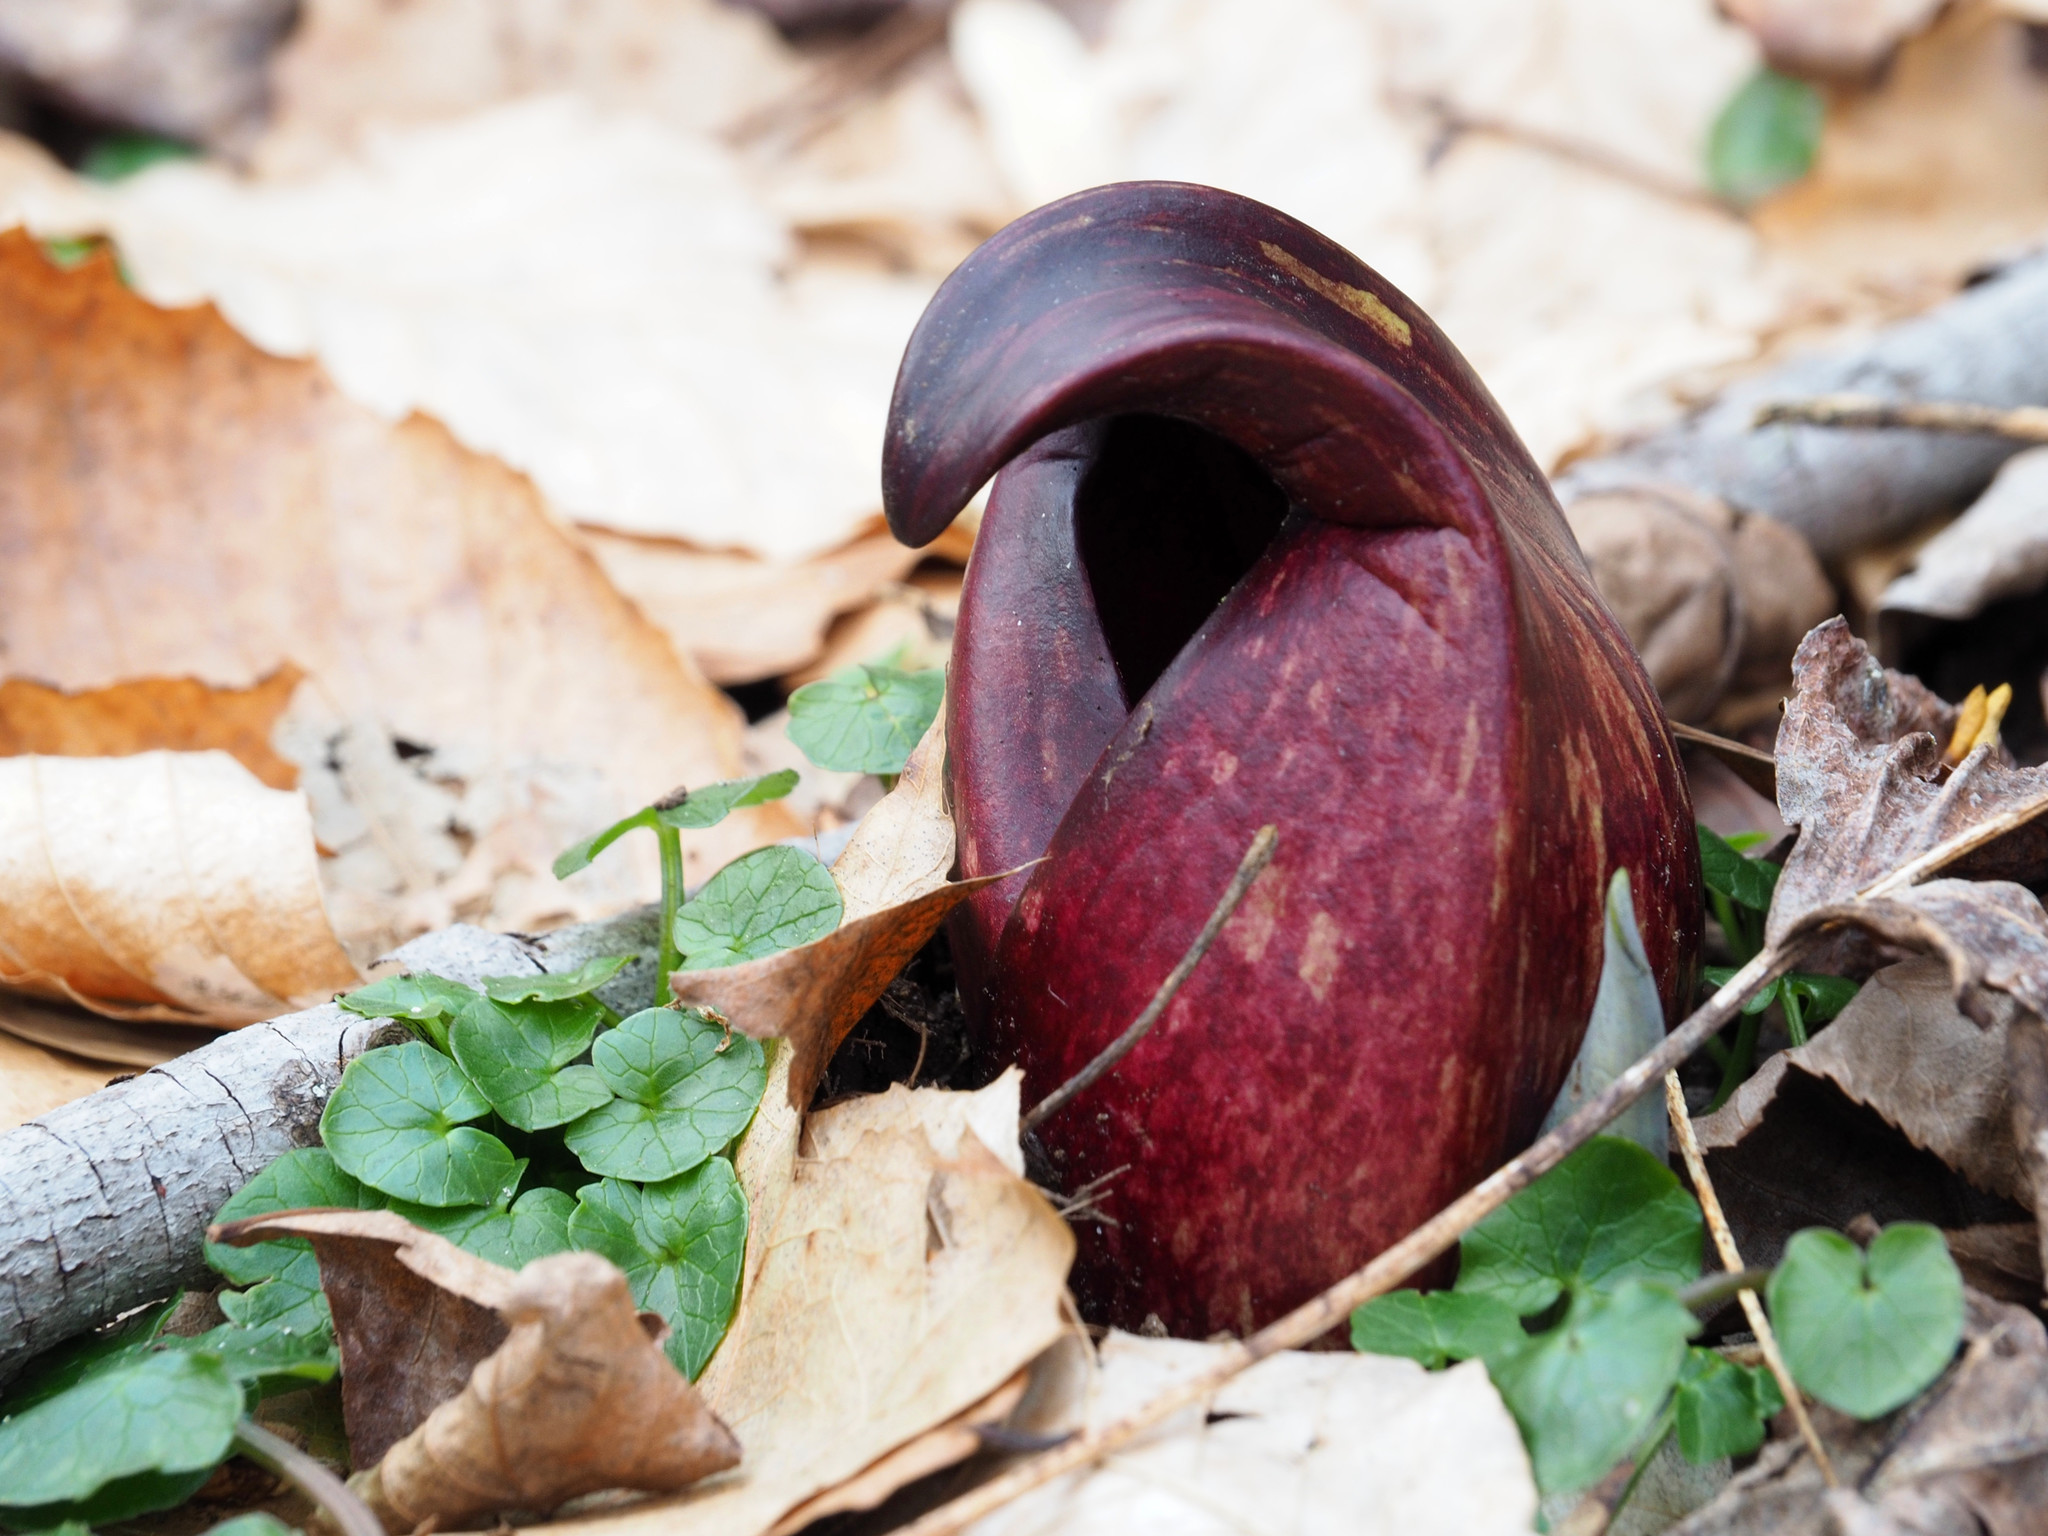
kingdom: Plantae
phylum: Tracheophyta
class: Liliopsida
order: Alismatales
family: Araceae
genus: Symplocarpus
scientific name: Symplocarpus foetidus
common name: Eastern skunk cabbage
